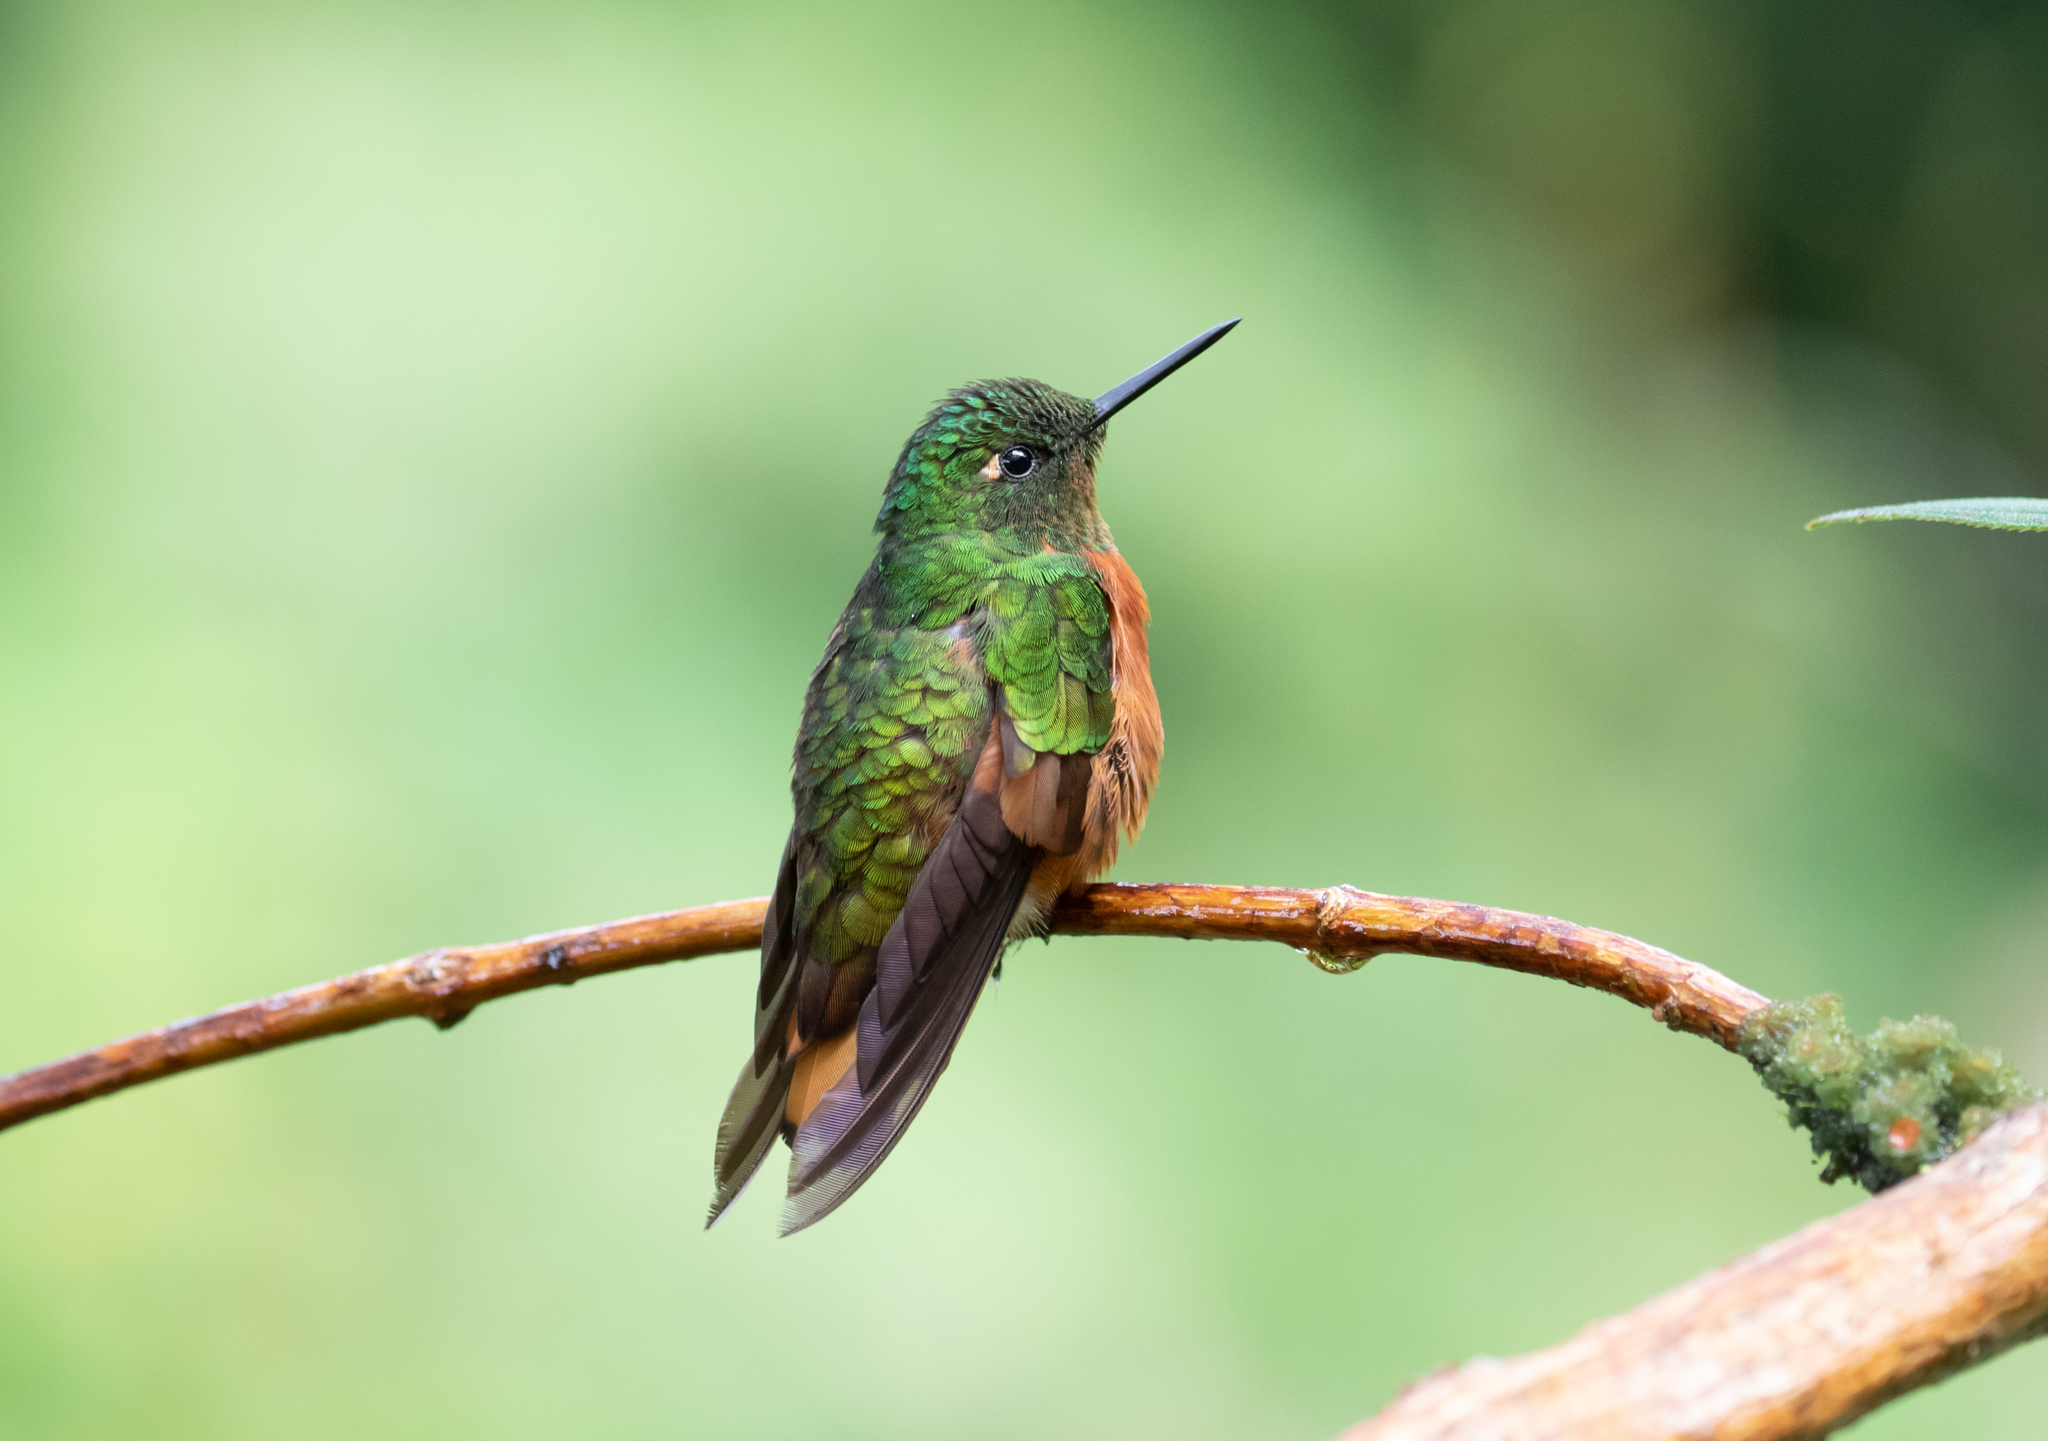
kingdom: Animalia
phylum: Chordata
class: Aves
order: Apodiformes
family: Trochilidae
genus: Boissonneaua
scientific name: Boissonneaua matthewsii
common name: Chestnut-breasted coronet
